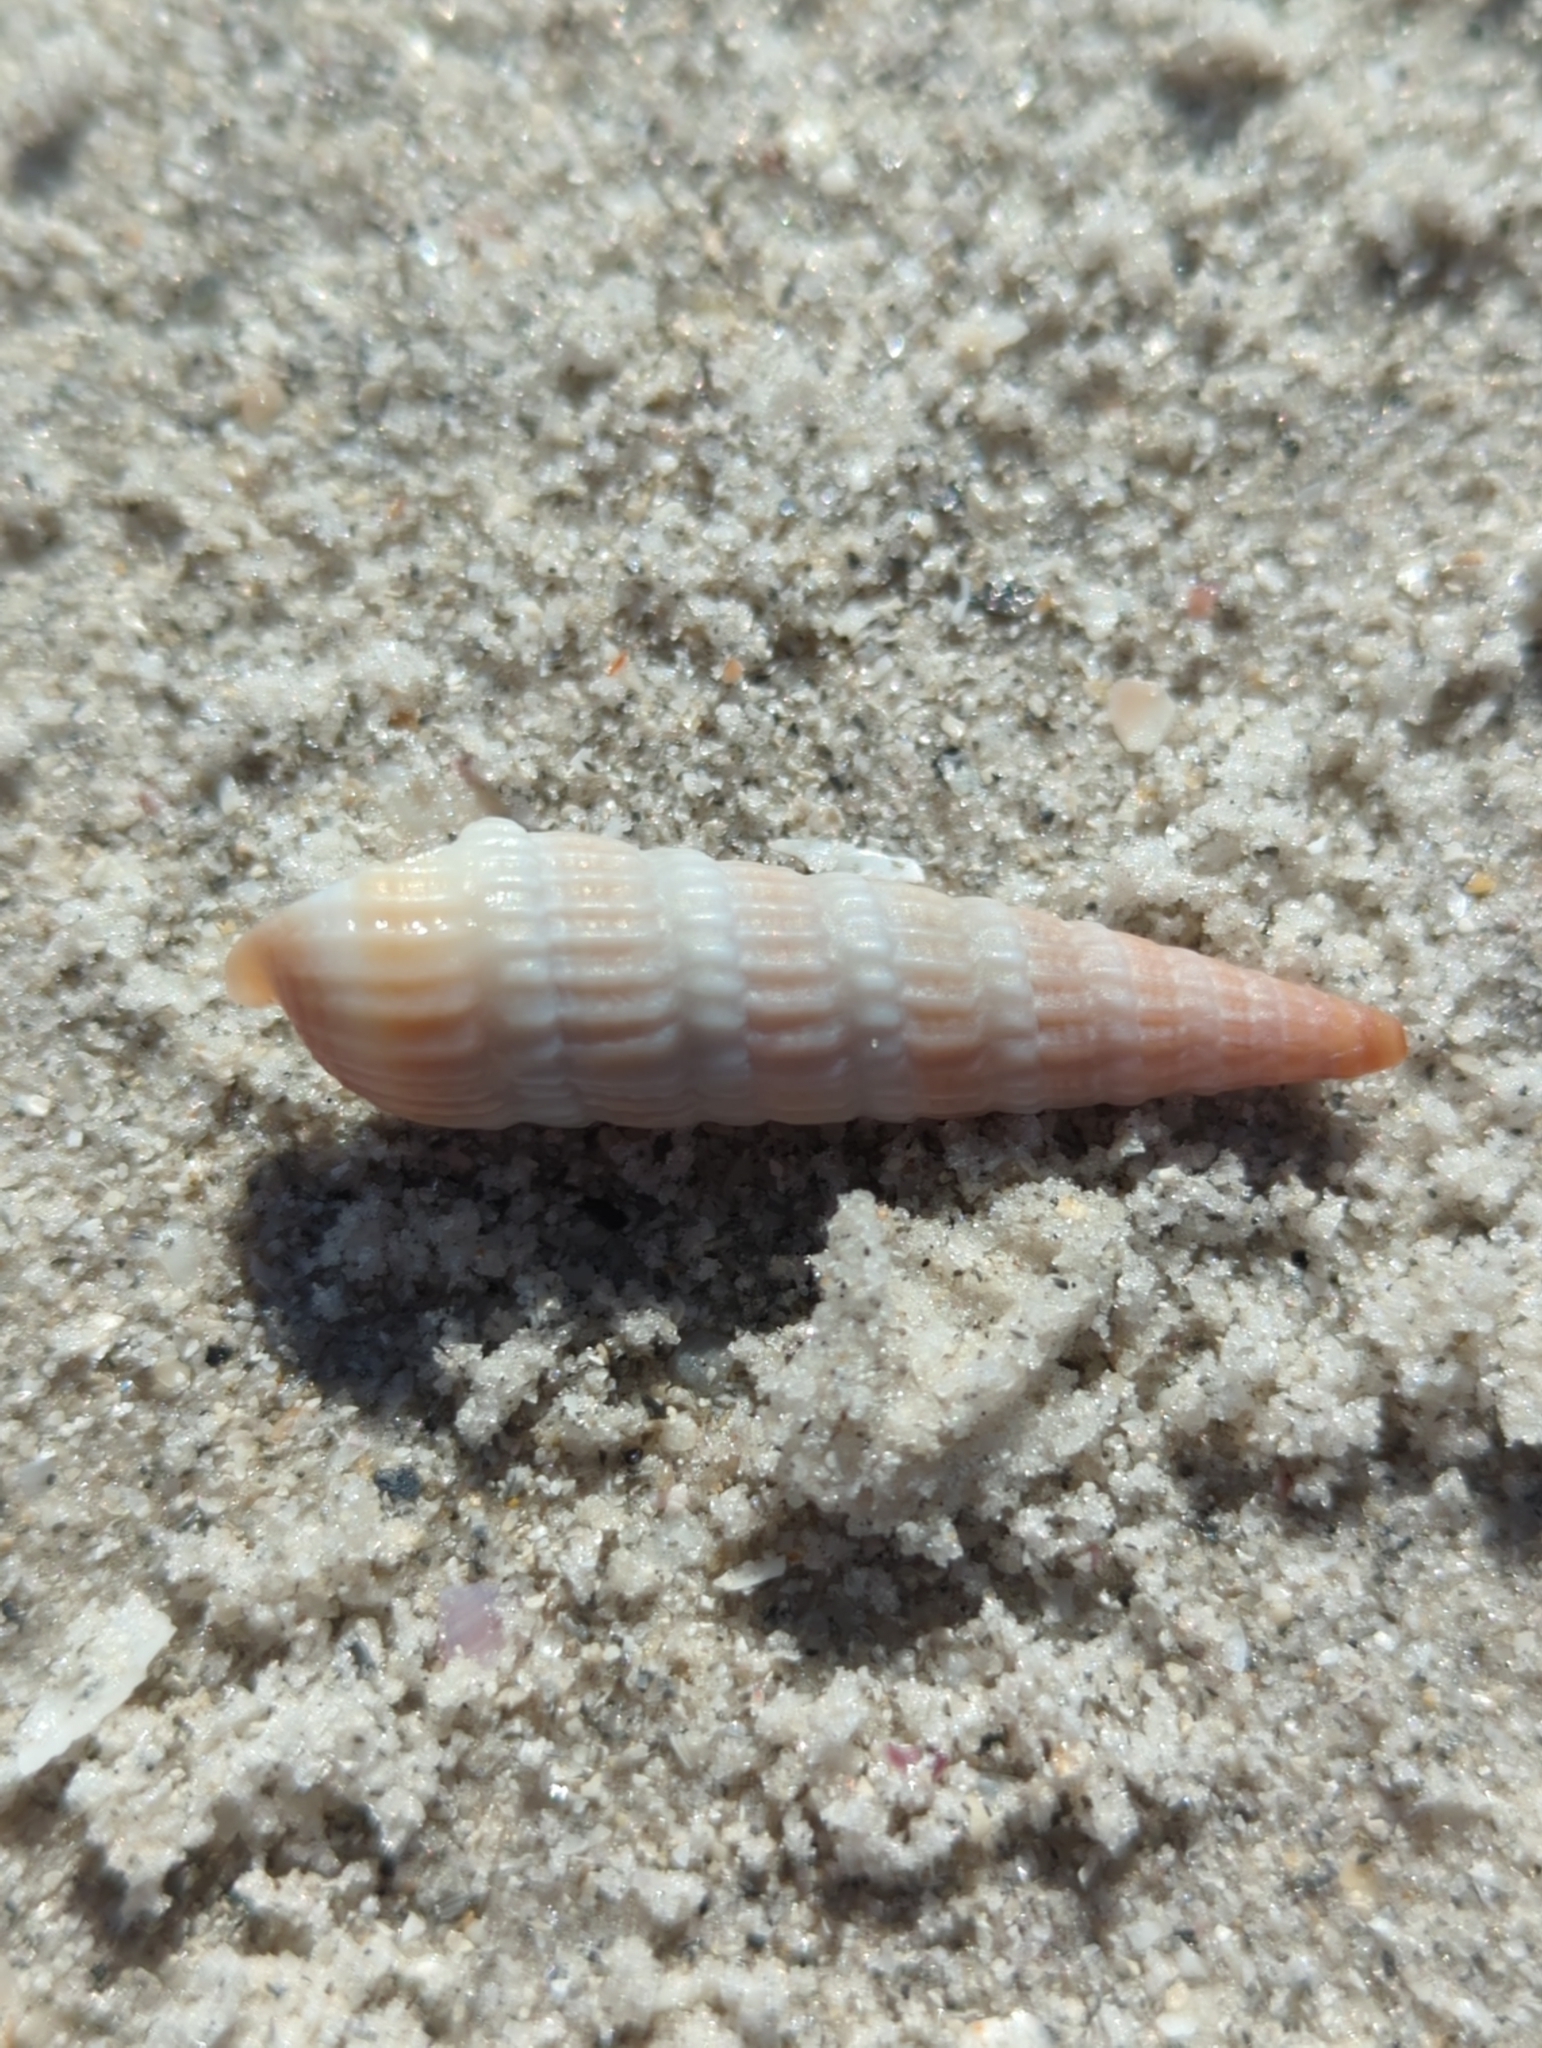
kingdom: Animalia
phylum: Mollusca
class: Gastropoda
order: Neogastropoda
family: Terebridae
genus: Neoterebra
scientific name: Neoterebra dislocata
